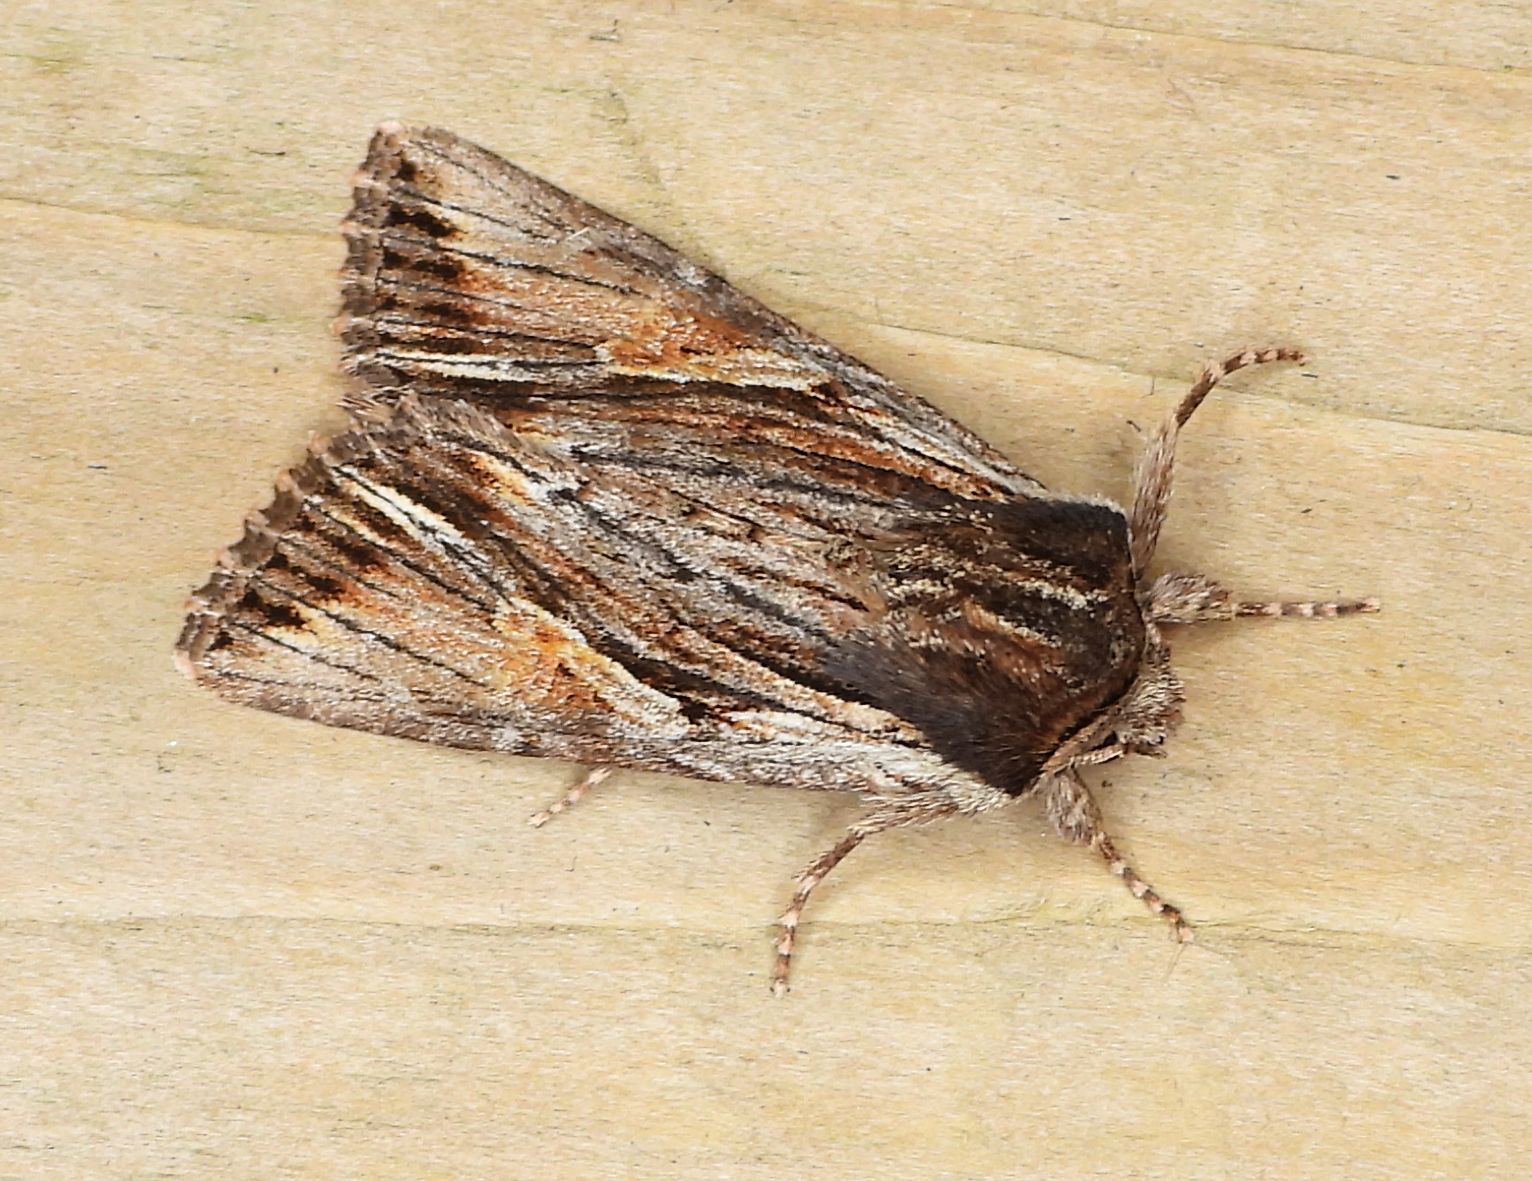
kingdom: Animalia
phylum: Arthropoda
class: Insecta
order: Lepidoptera
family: Noctuidae
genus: Achatia
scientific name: Achatia evicta
